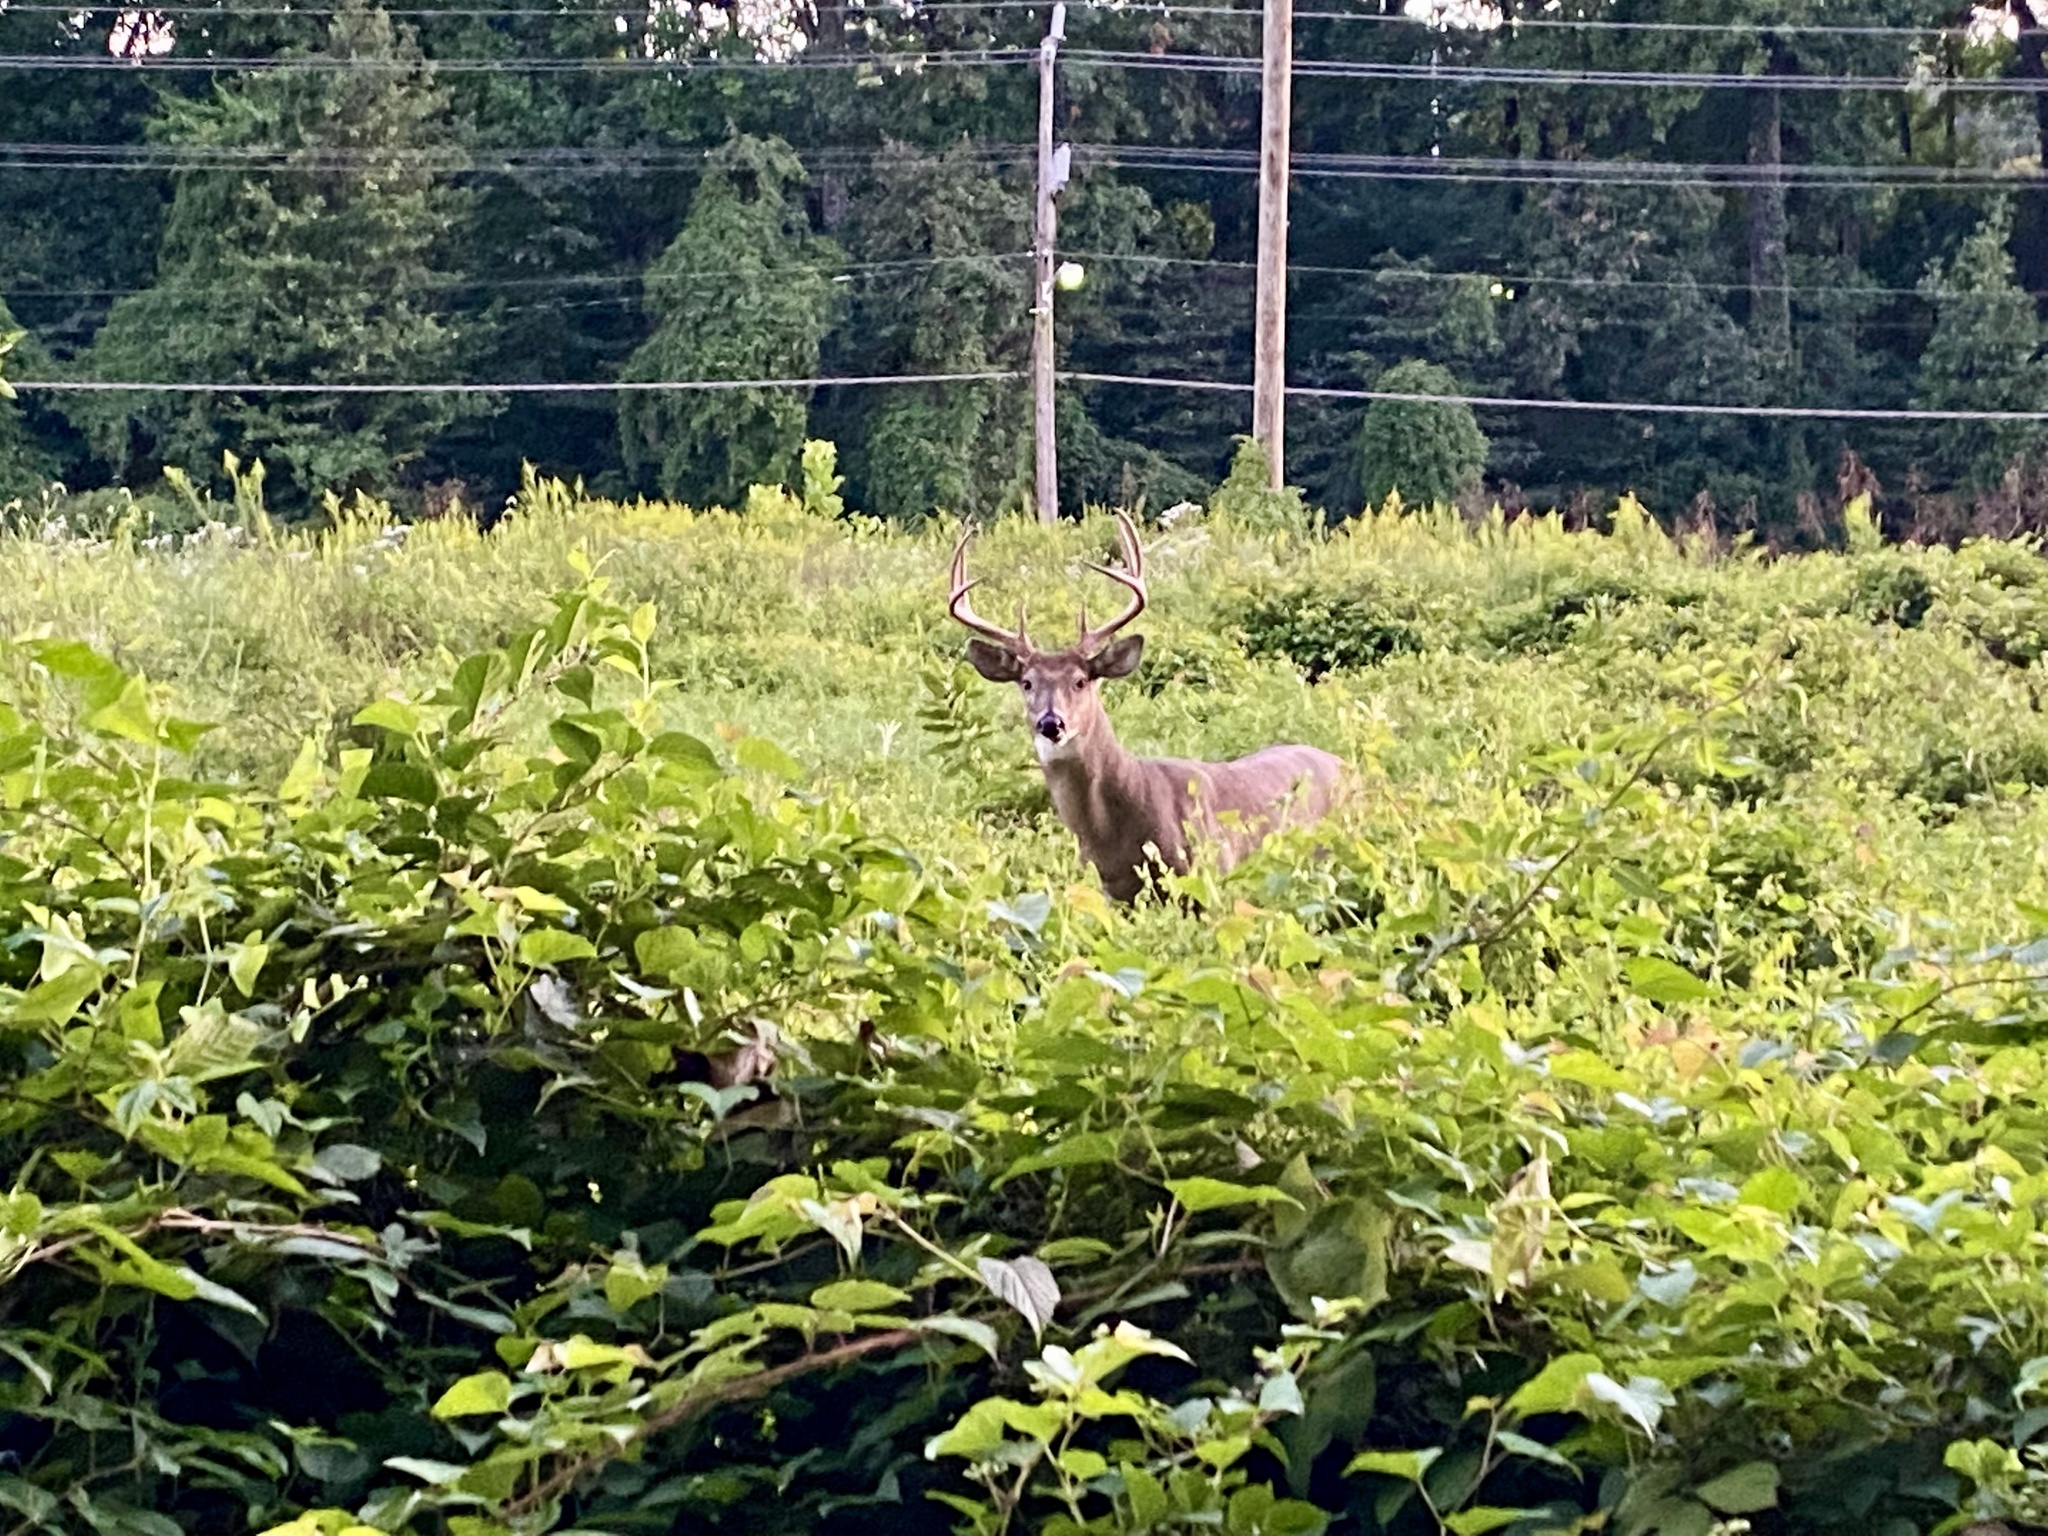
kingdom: Animalia
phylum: Chordata
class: Mammalia
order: Artiodactyla
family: Cervidae
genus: Odocoileus
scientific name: Odocoileus virginianus
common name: White-tailed deer
